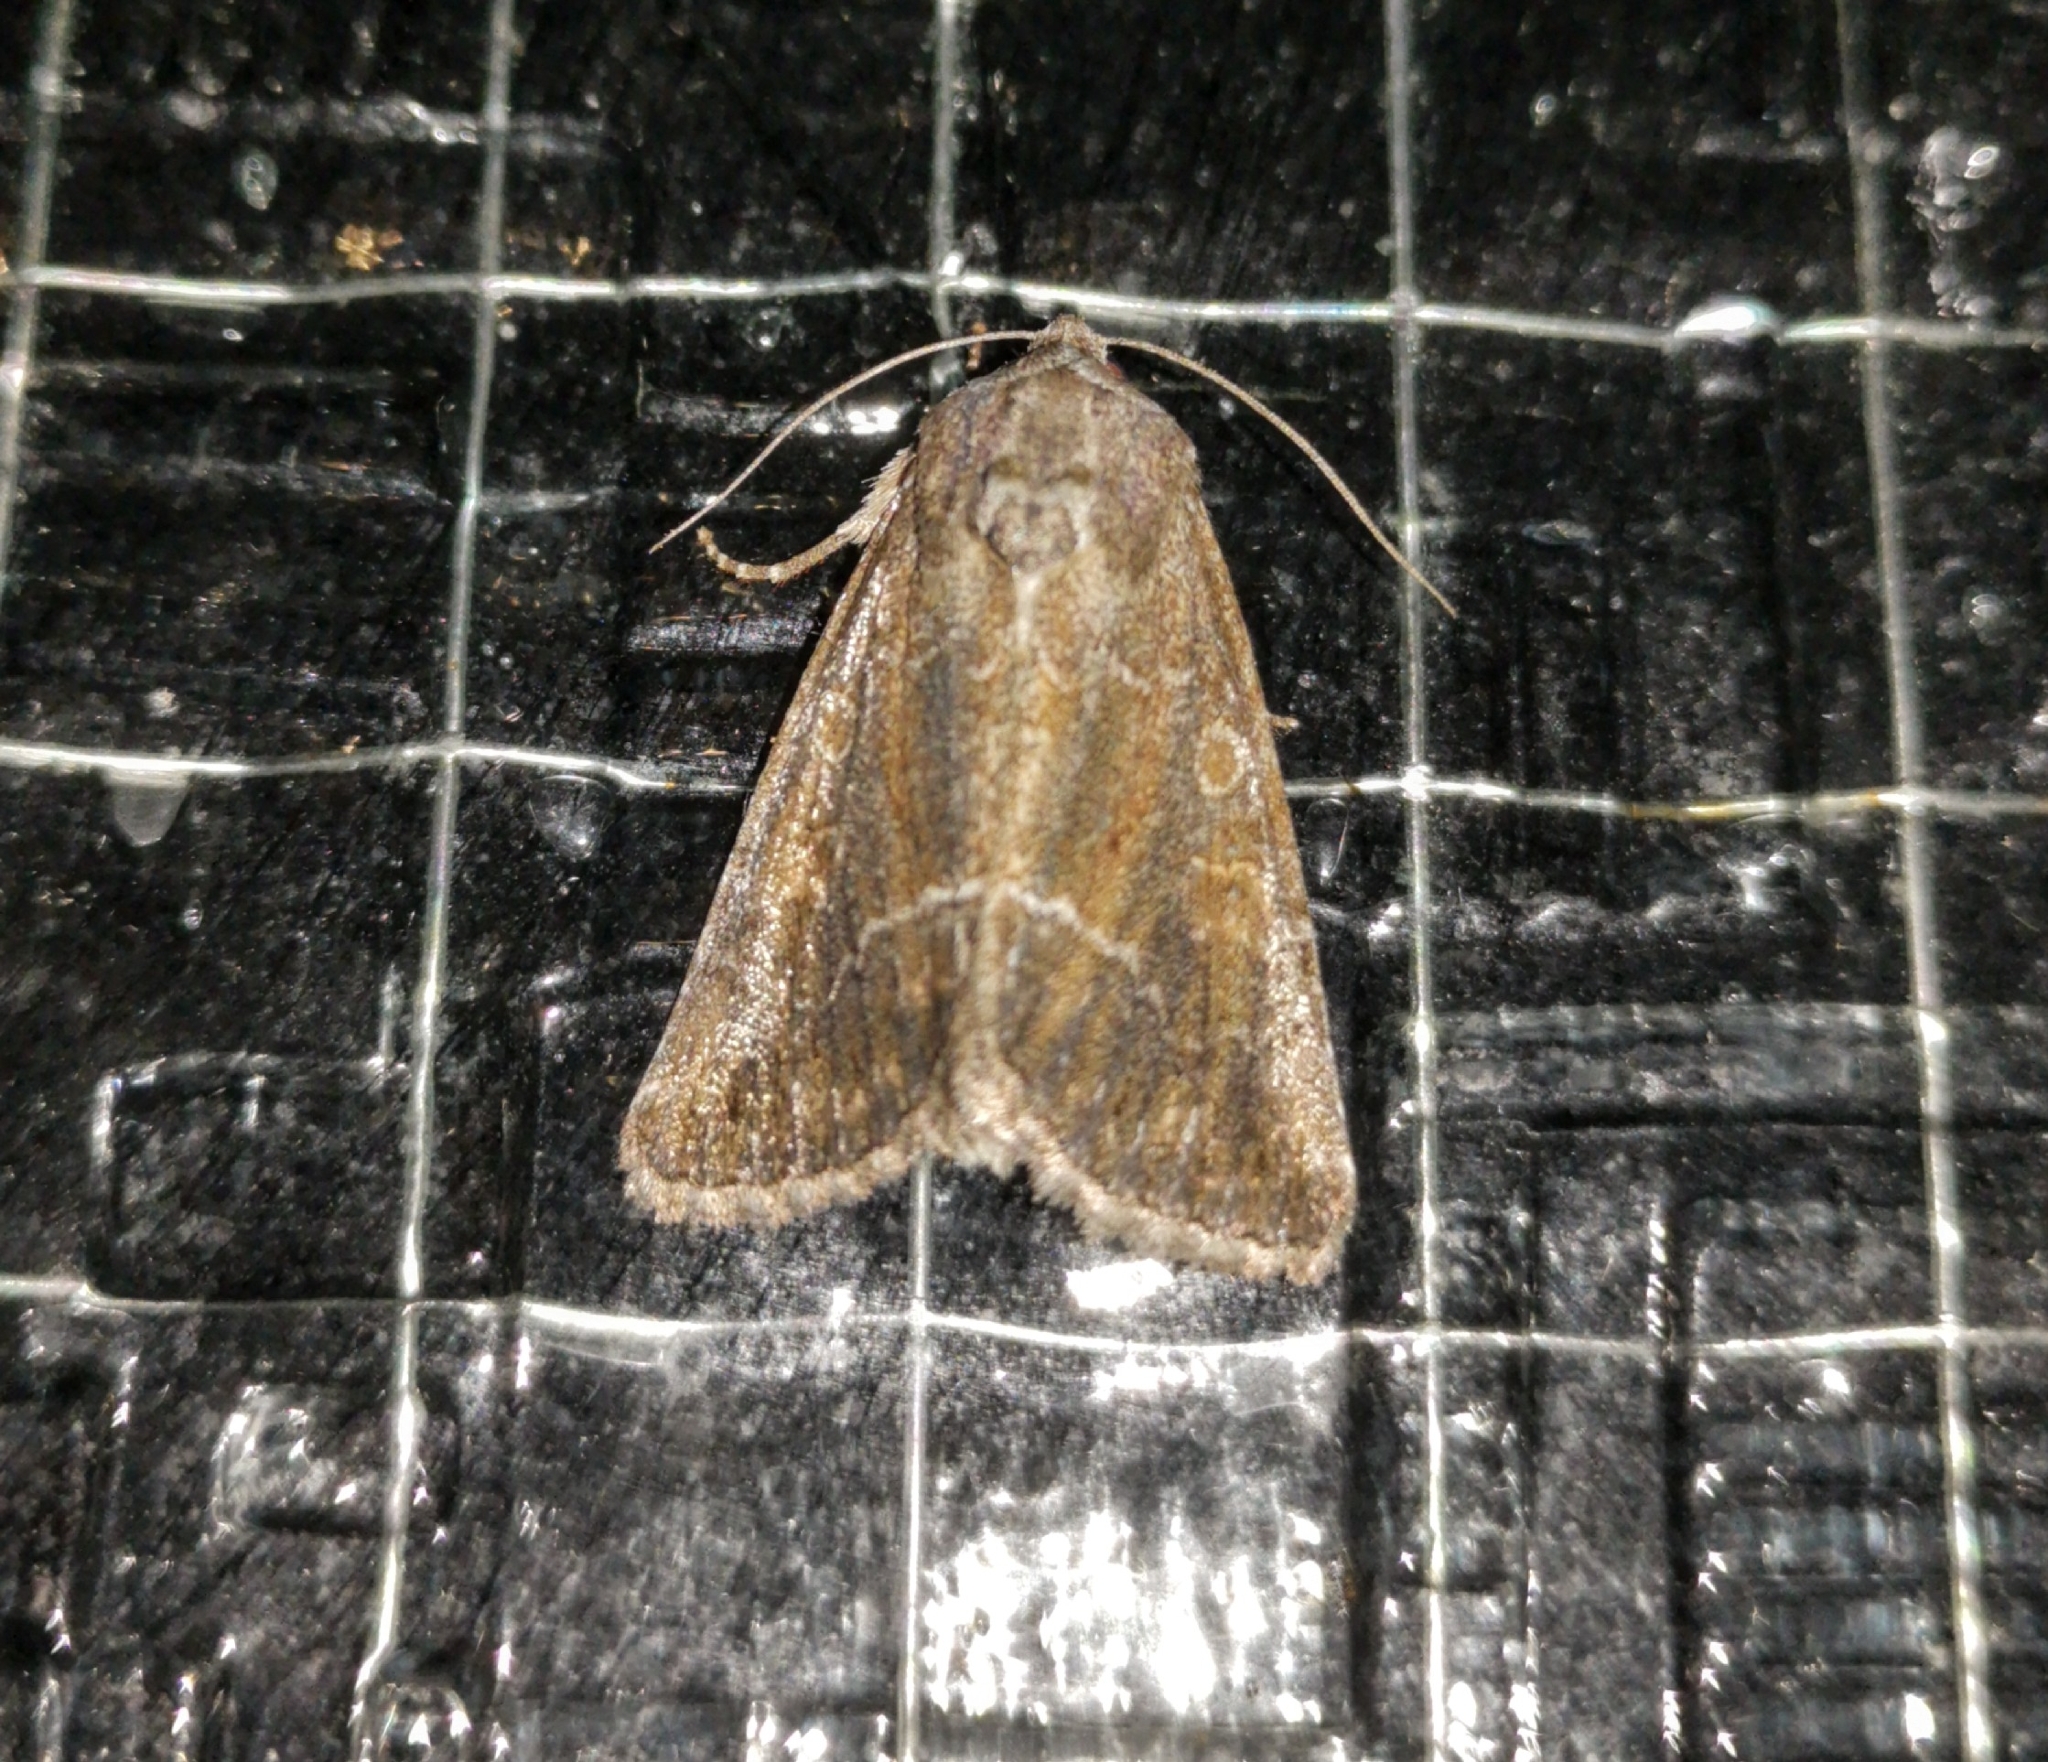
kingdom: Animalia
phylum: Arthropoda
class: Insecta
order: Lepidoptera
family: Noctuidae
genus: Thalpophila
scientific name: Thalpophila matura
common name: Straw underwing
